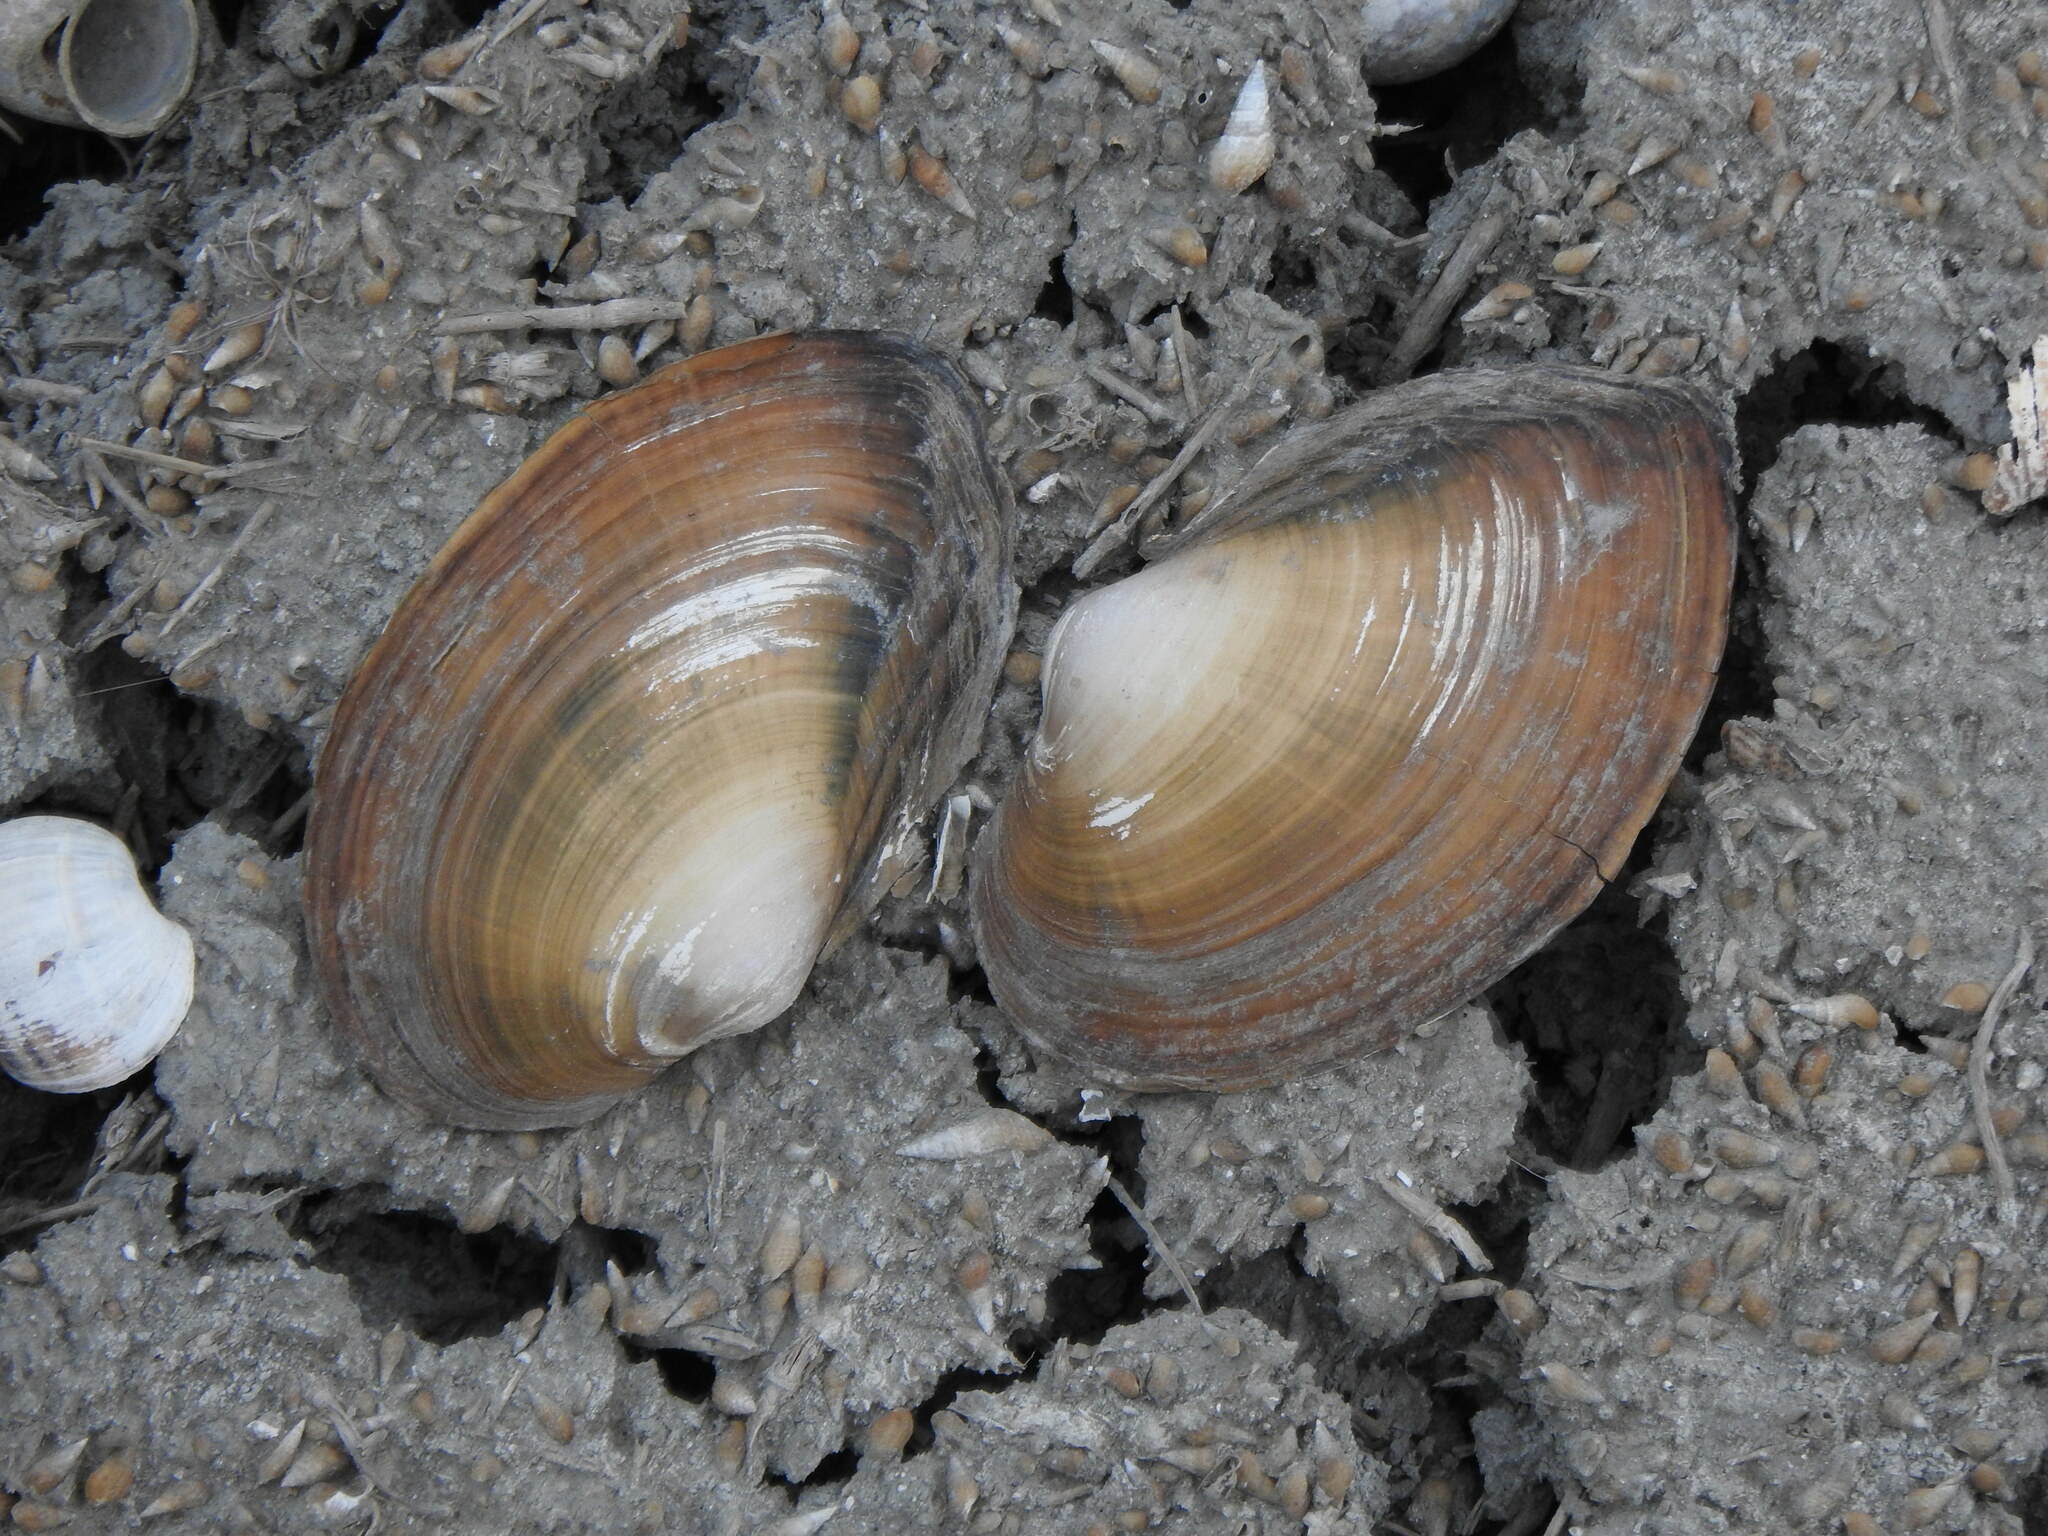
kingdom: Animalia
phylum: Mollusca
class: Bivalvia
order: Unionida
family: Unionidae
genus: Anemina
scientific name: Anemina arcaeformis
